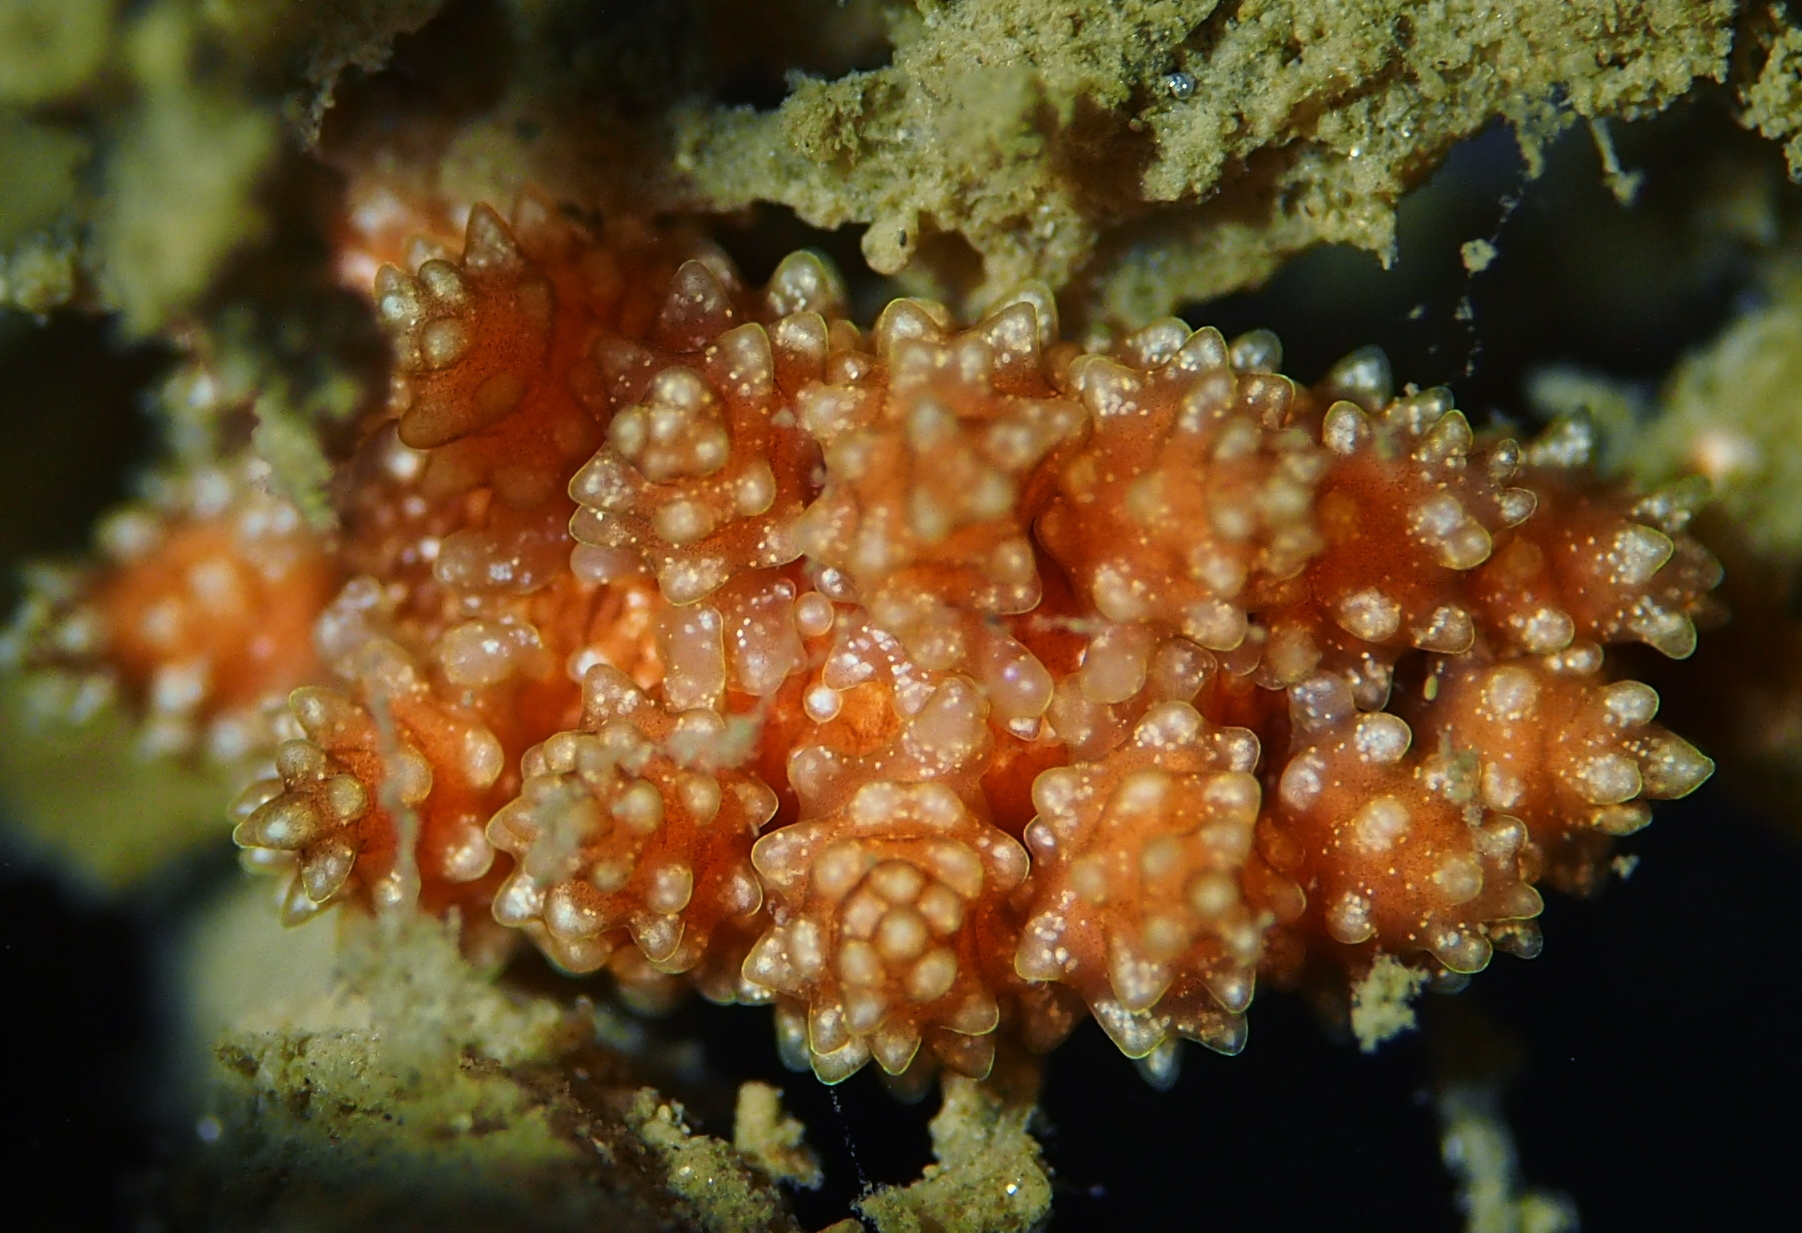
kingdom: Animalia
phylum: Mollusca
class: Gastropoda
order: Nudibranchia
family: Dotidae
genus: Doto
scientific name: Doto fragilis
